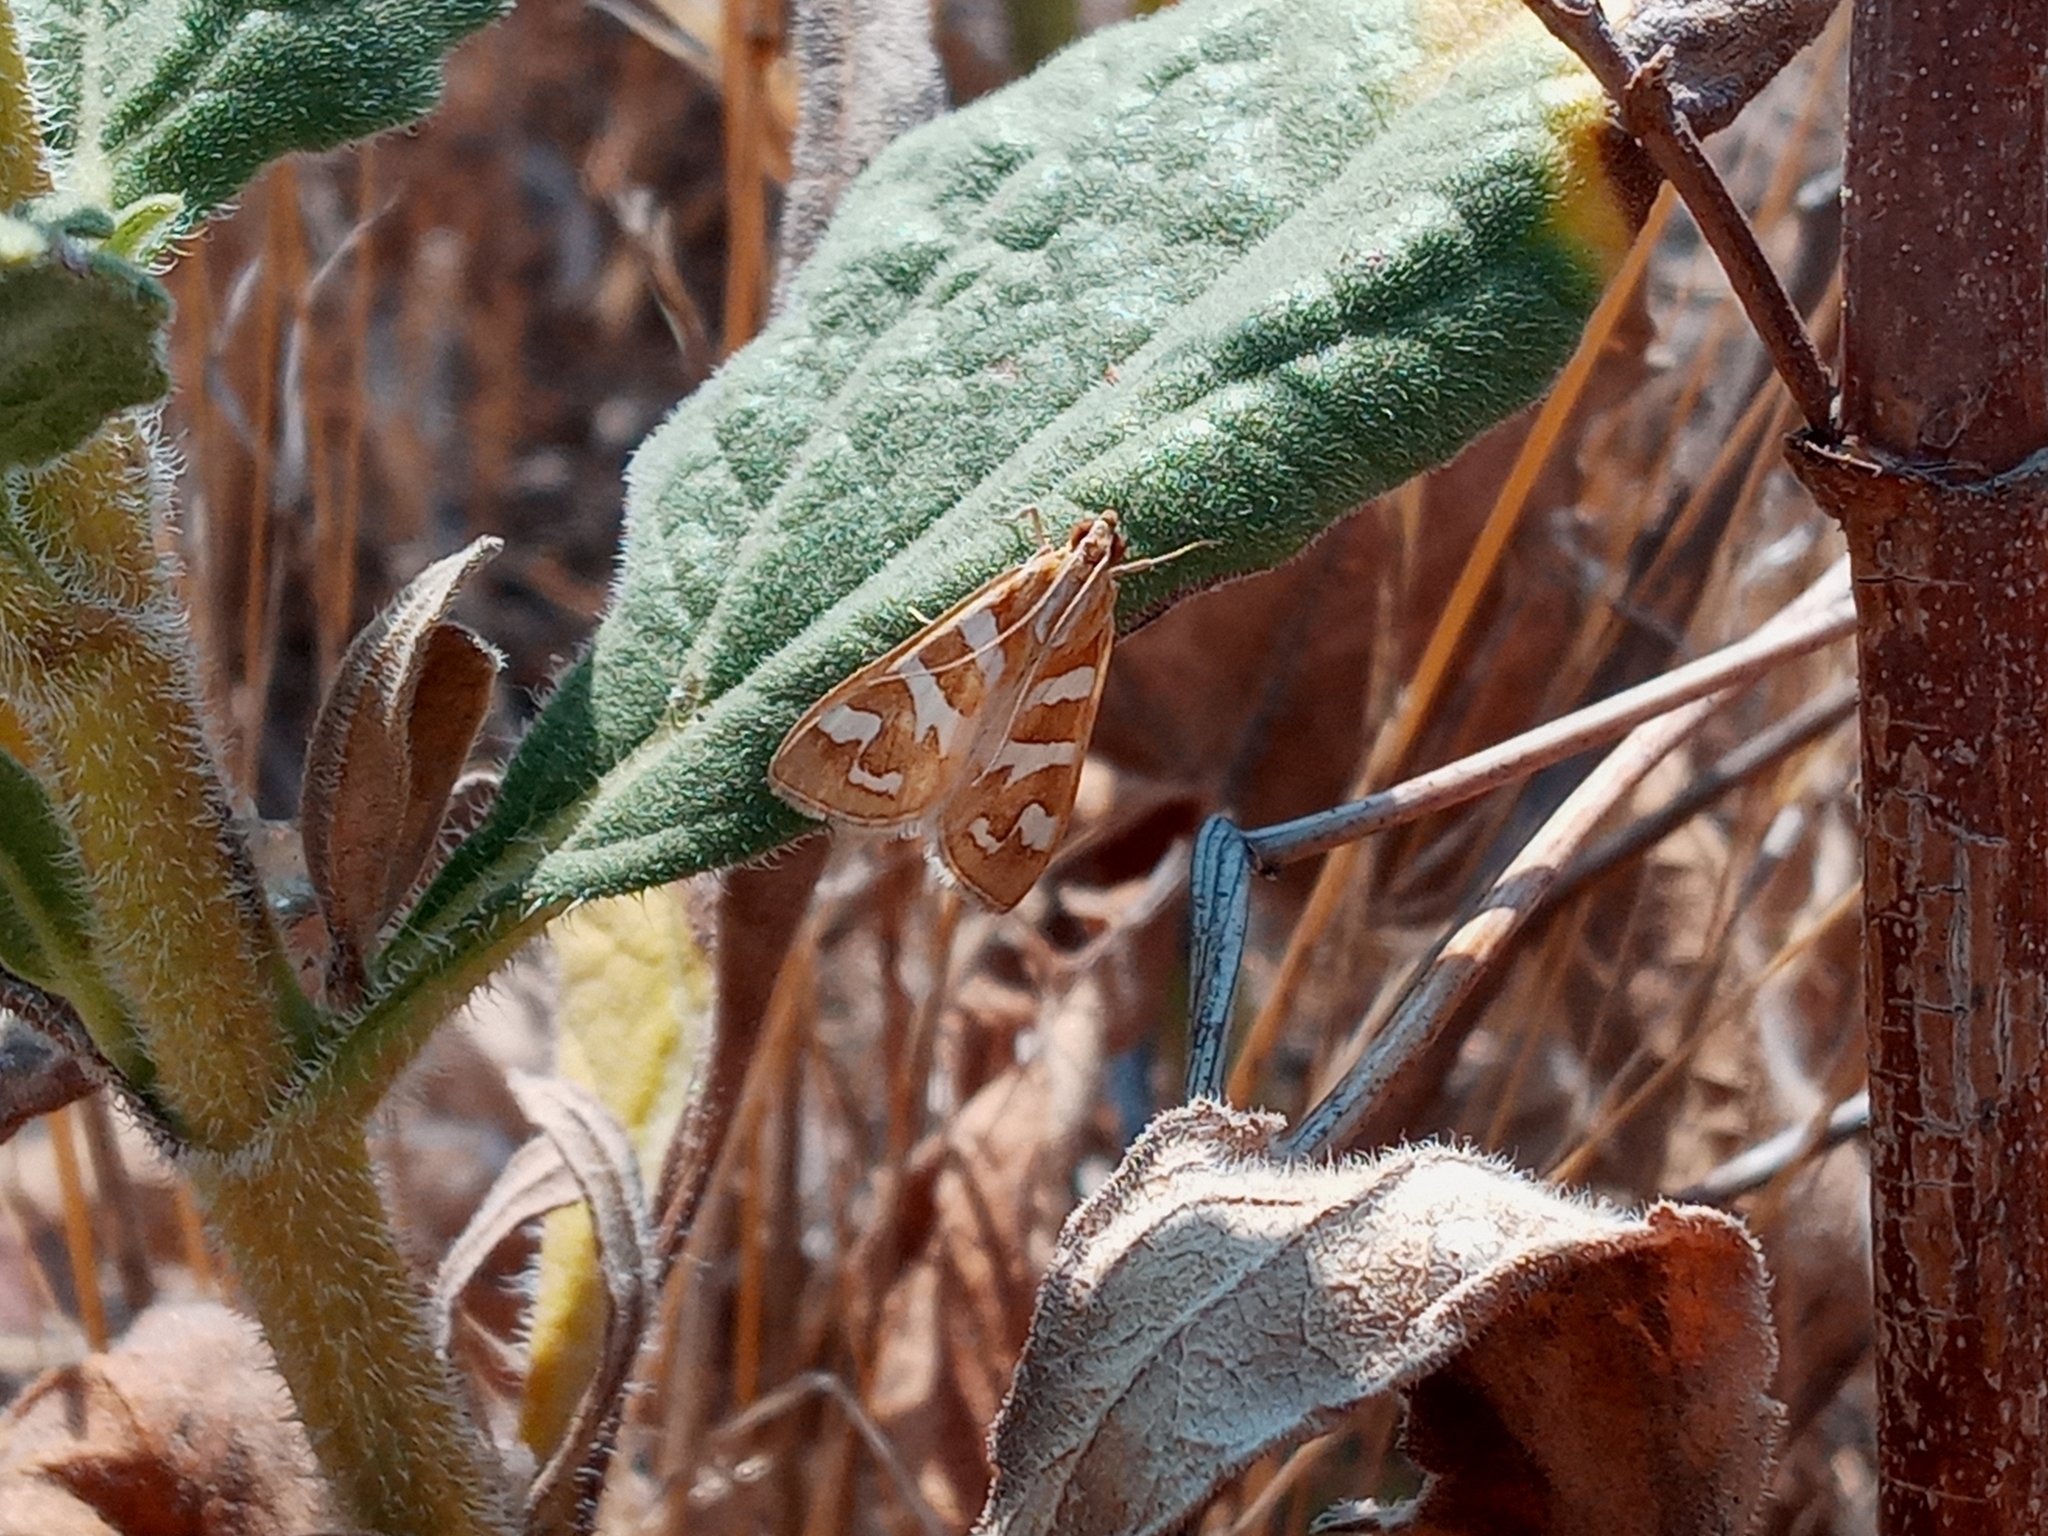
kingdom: Animalia
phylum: Arthropoda
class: Insecta
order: Lepidoptera
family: Crambidae
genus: Diastictis
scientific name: Diastictis fracturalis
